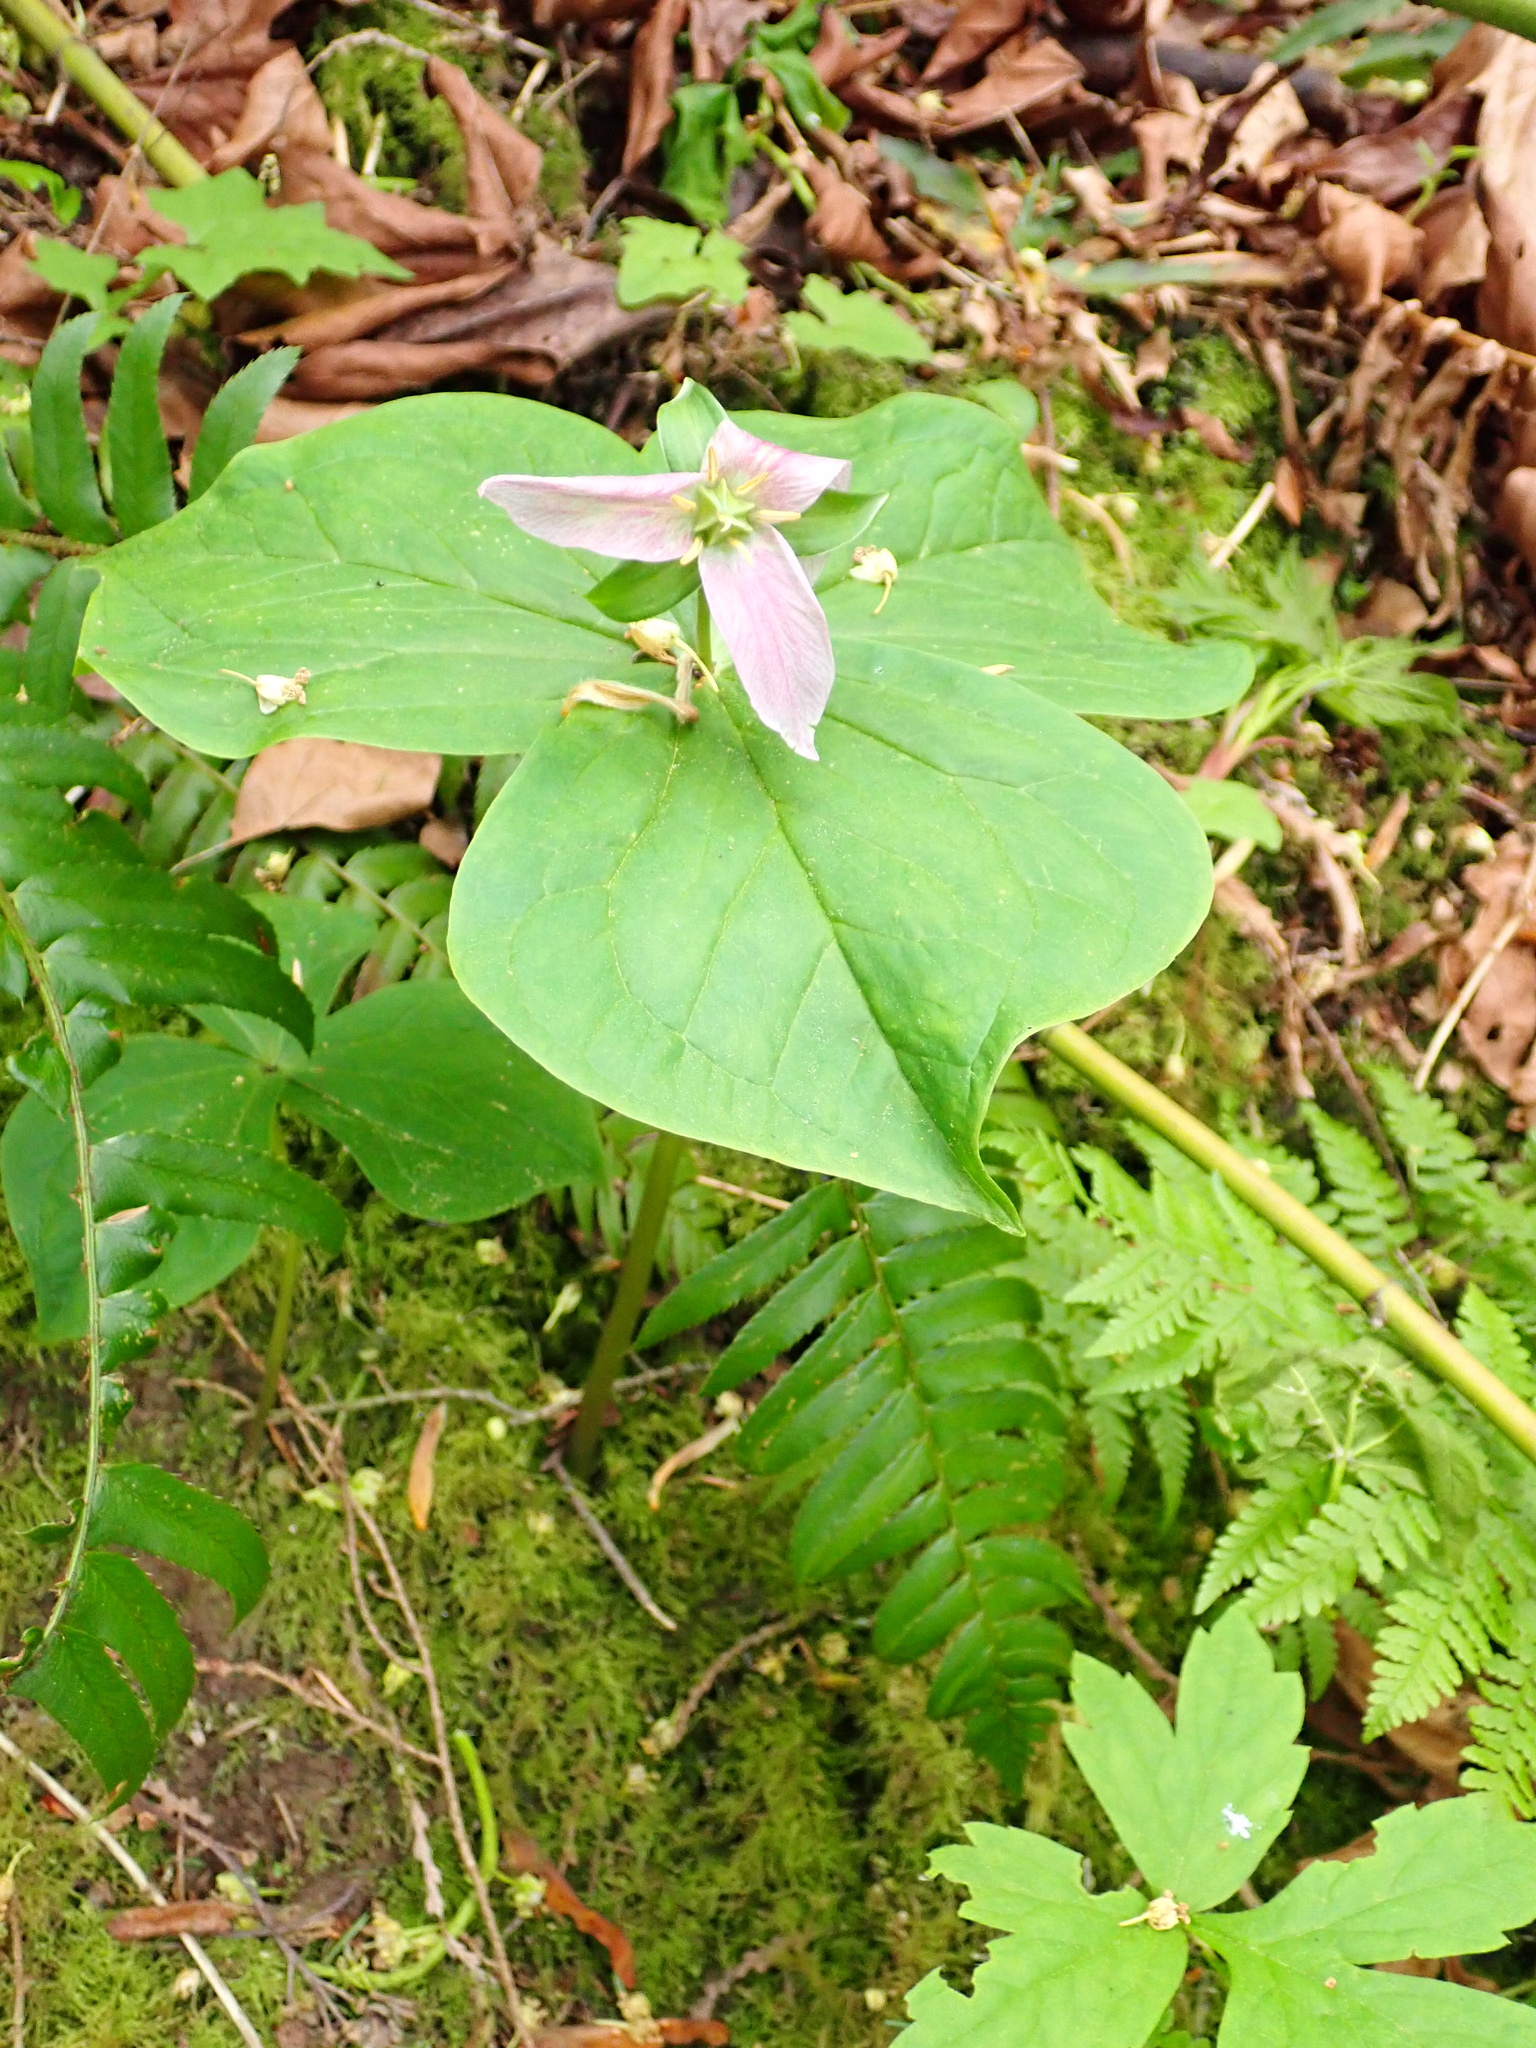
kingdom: Plantae
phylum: Tracheophyta
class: Liliopsida
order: Liliales
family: Melanthiaceae
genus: Trillium
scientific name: Trillium ovatum
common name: Pacific trillium
